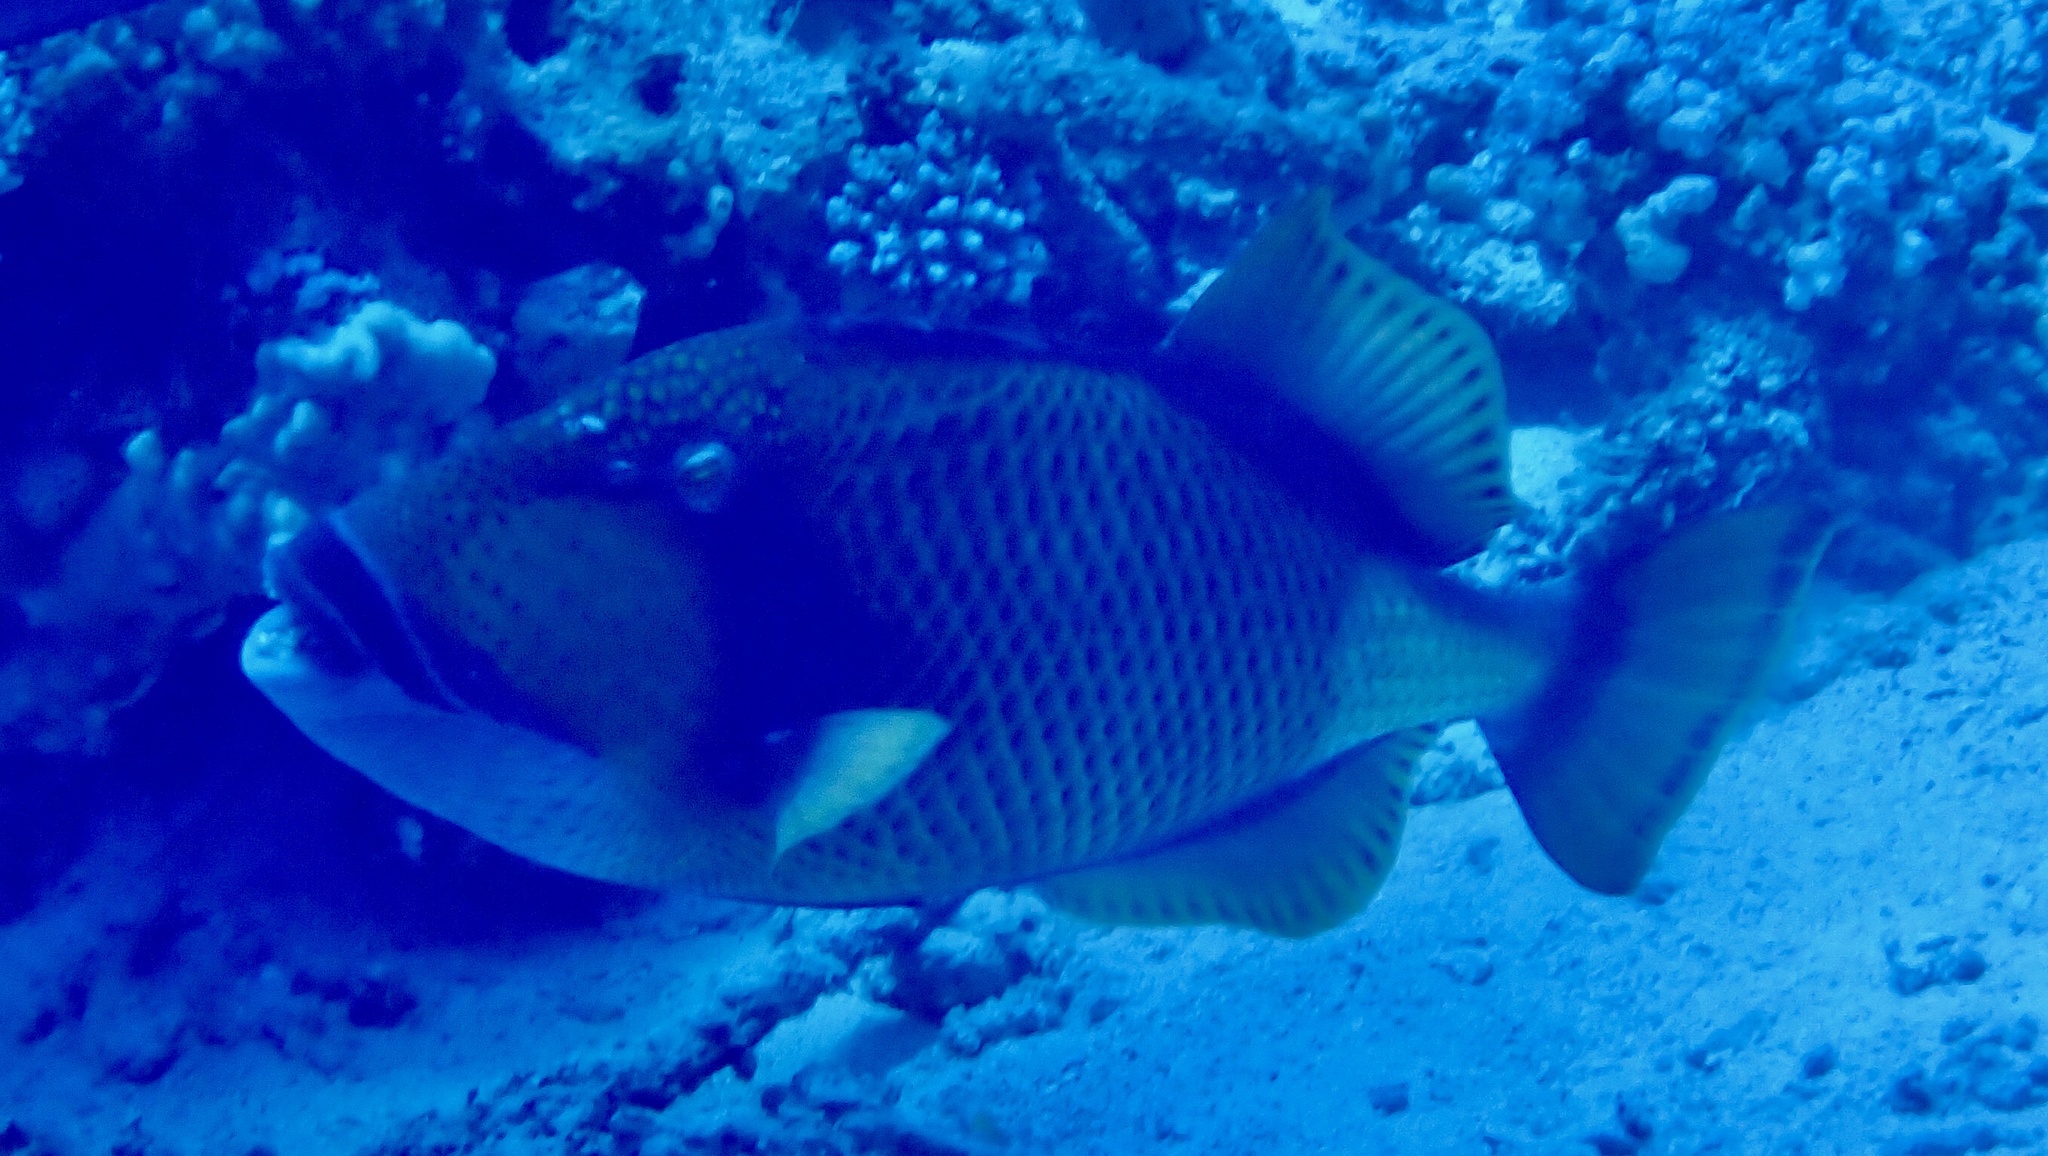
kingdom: Animalia
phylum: Chordata
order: Tetraodontiformes
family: Balistidae
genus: Balistoides
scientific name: Balistoides viridescens
